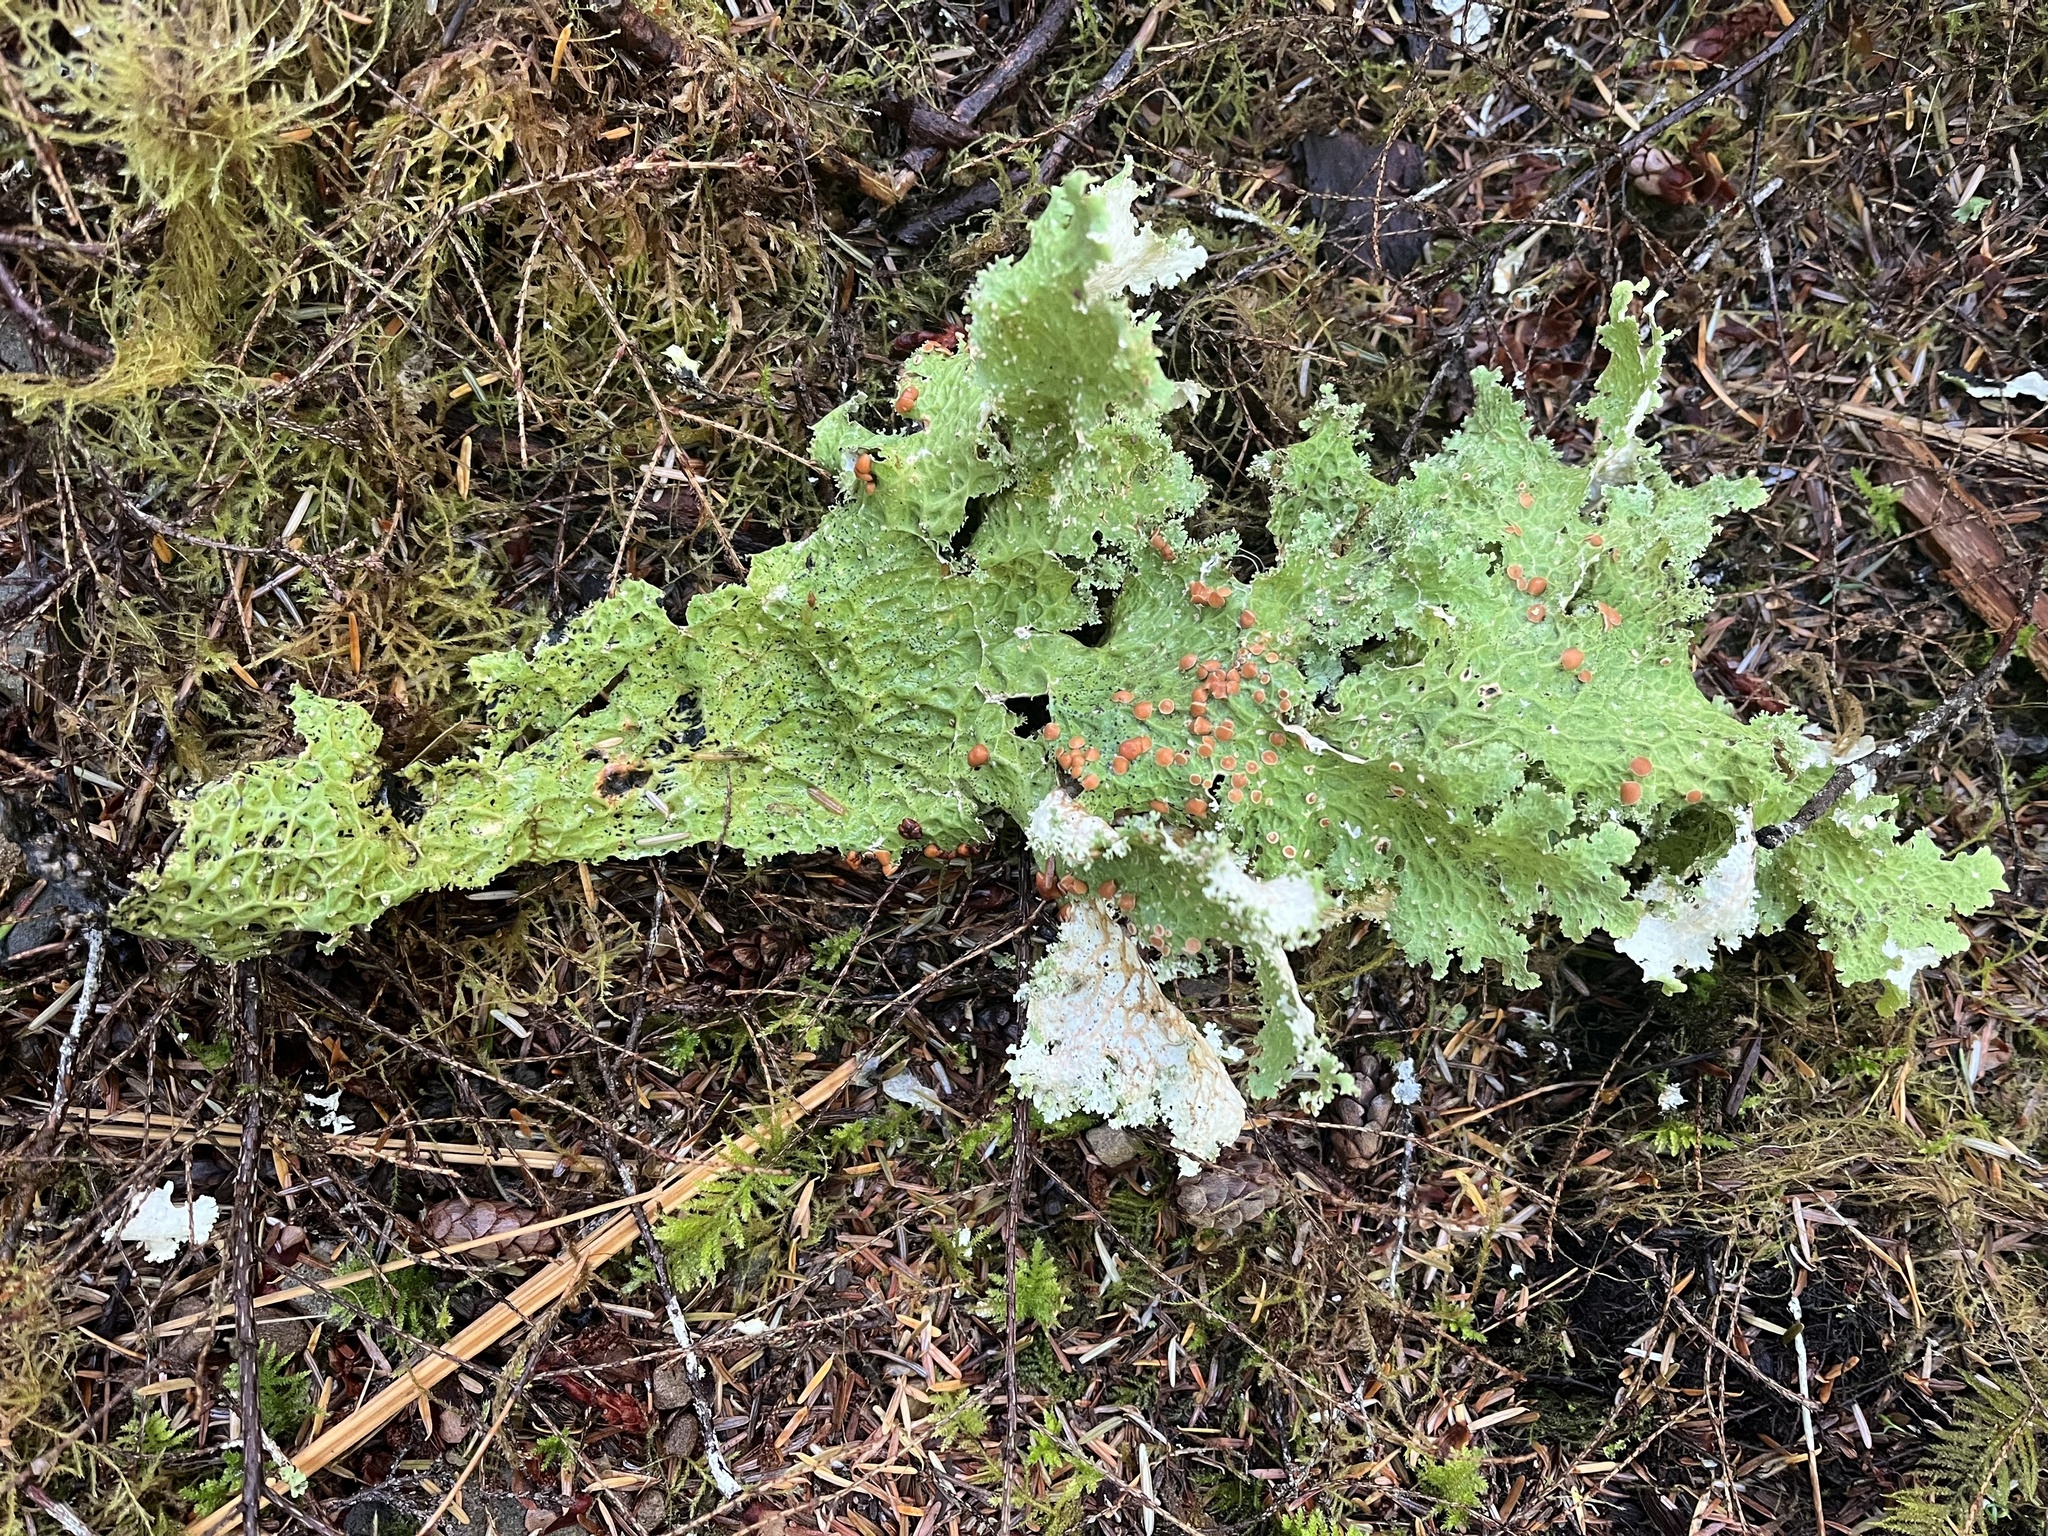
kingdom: Fungi
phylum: Ascomycota
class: Lecanoromycetes
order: Peltigerales
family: Lobariaceae
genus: Lobaria
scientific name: Lobaria oregana
